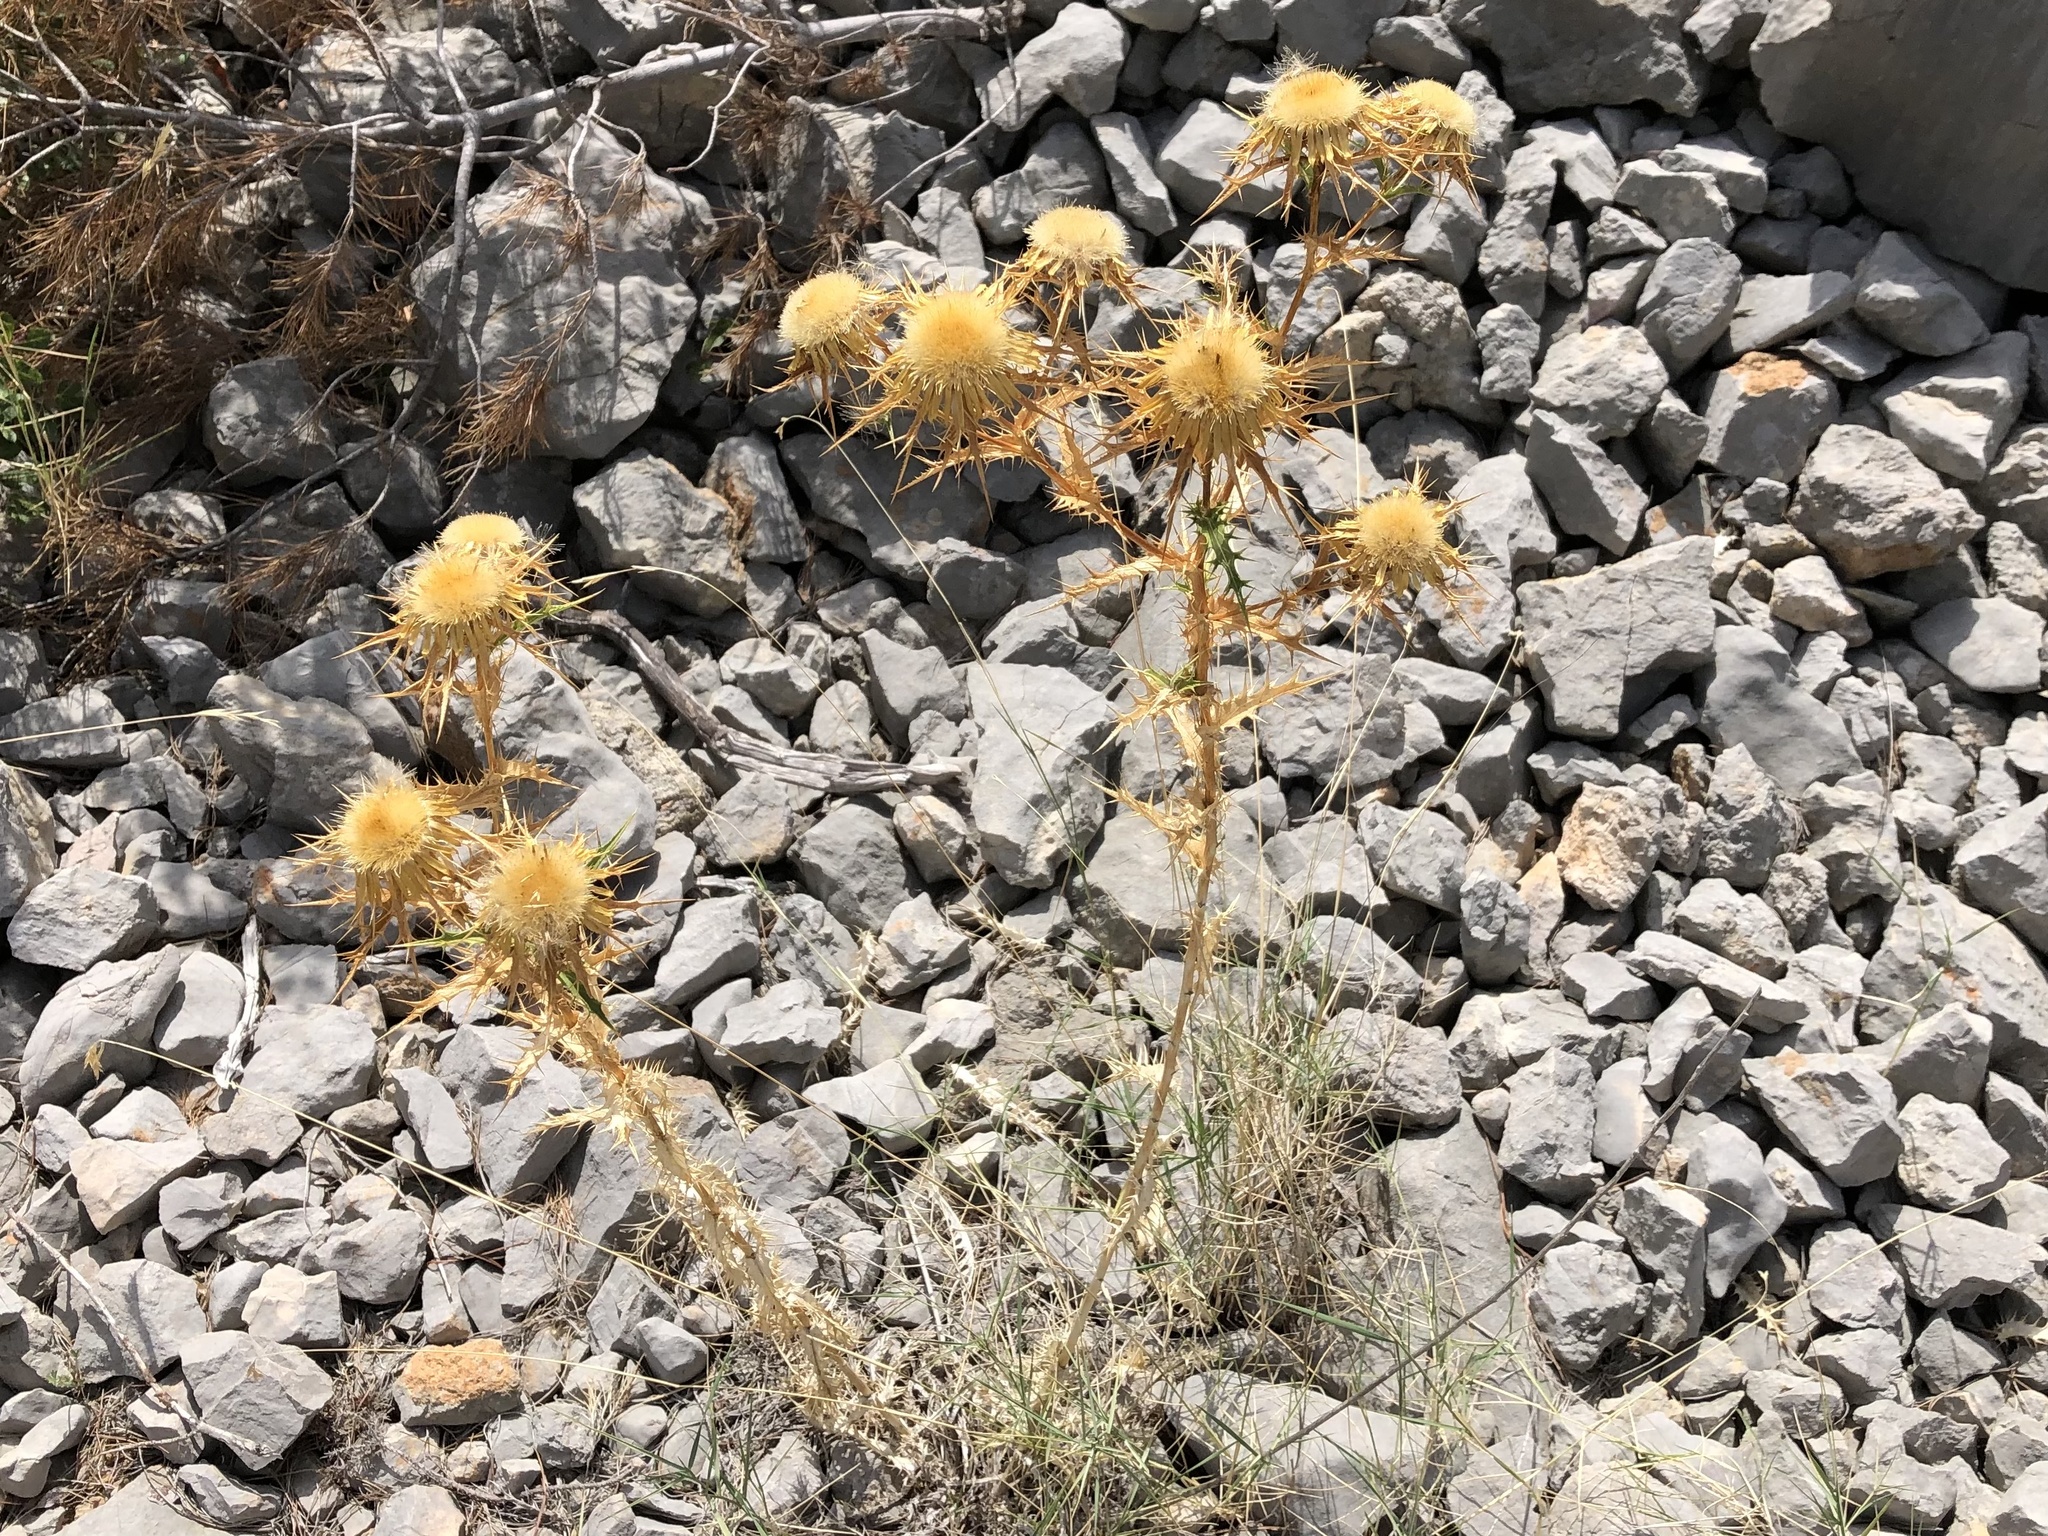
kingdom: Plantae
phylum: Tracheophyta
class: Magnoliopsida
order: Asterales
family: Asteraceae
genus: Carlina
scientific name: Carlina corymbosa
